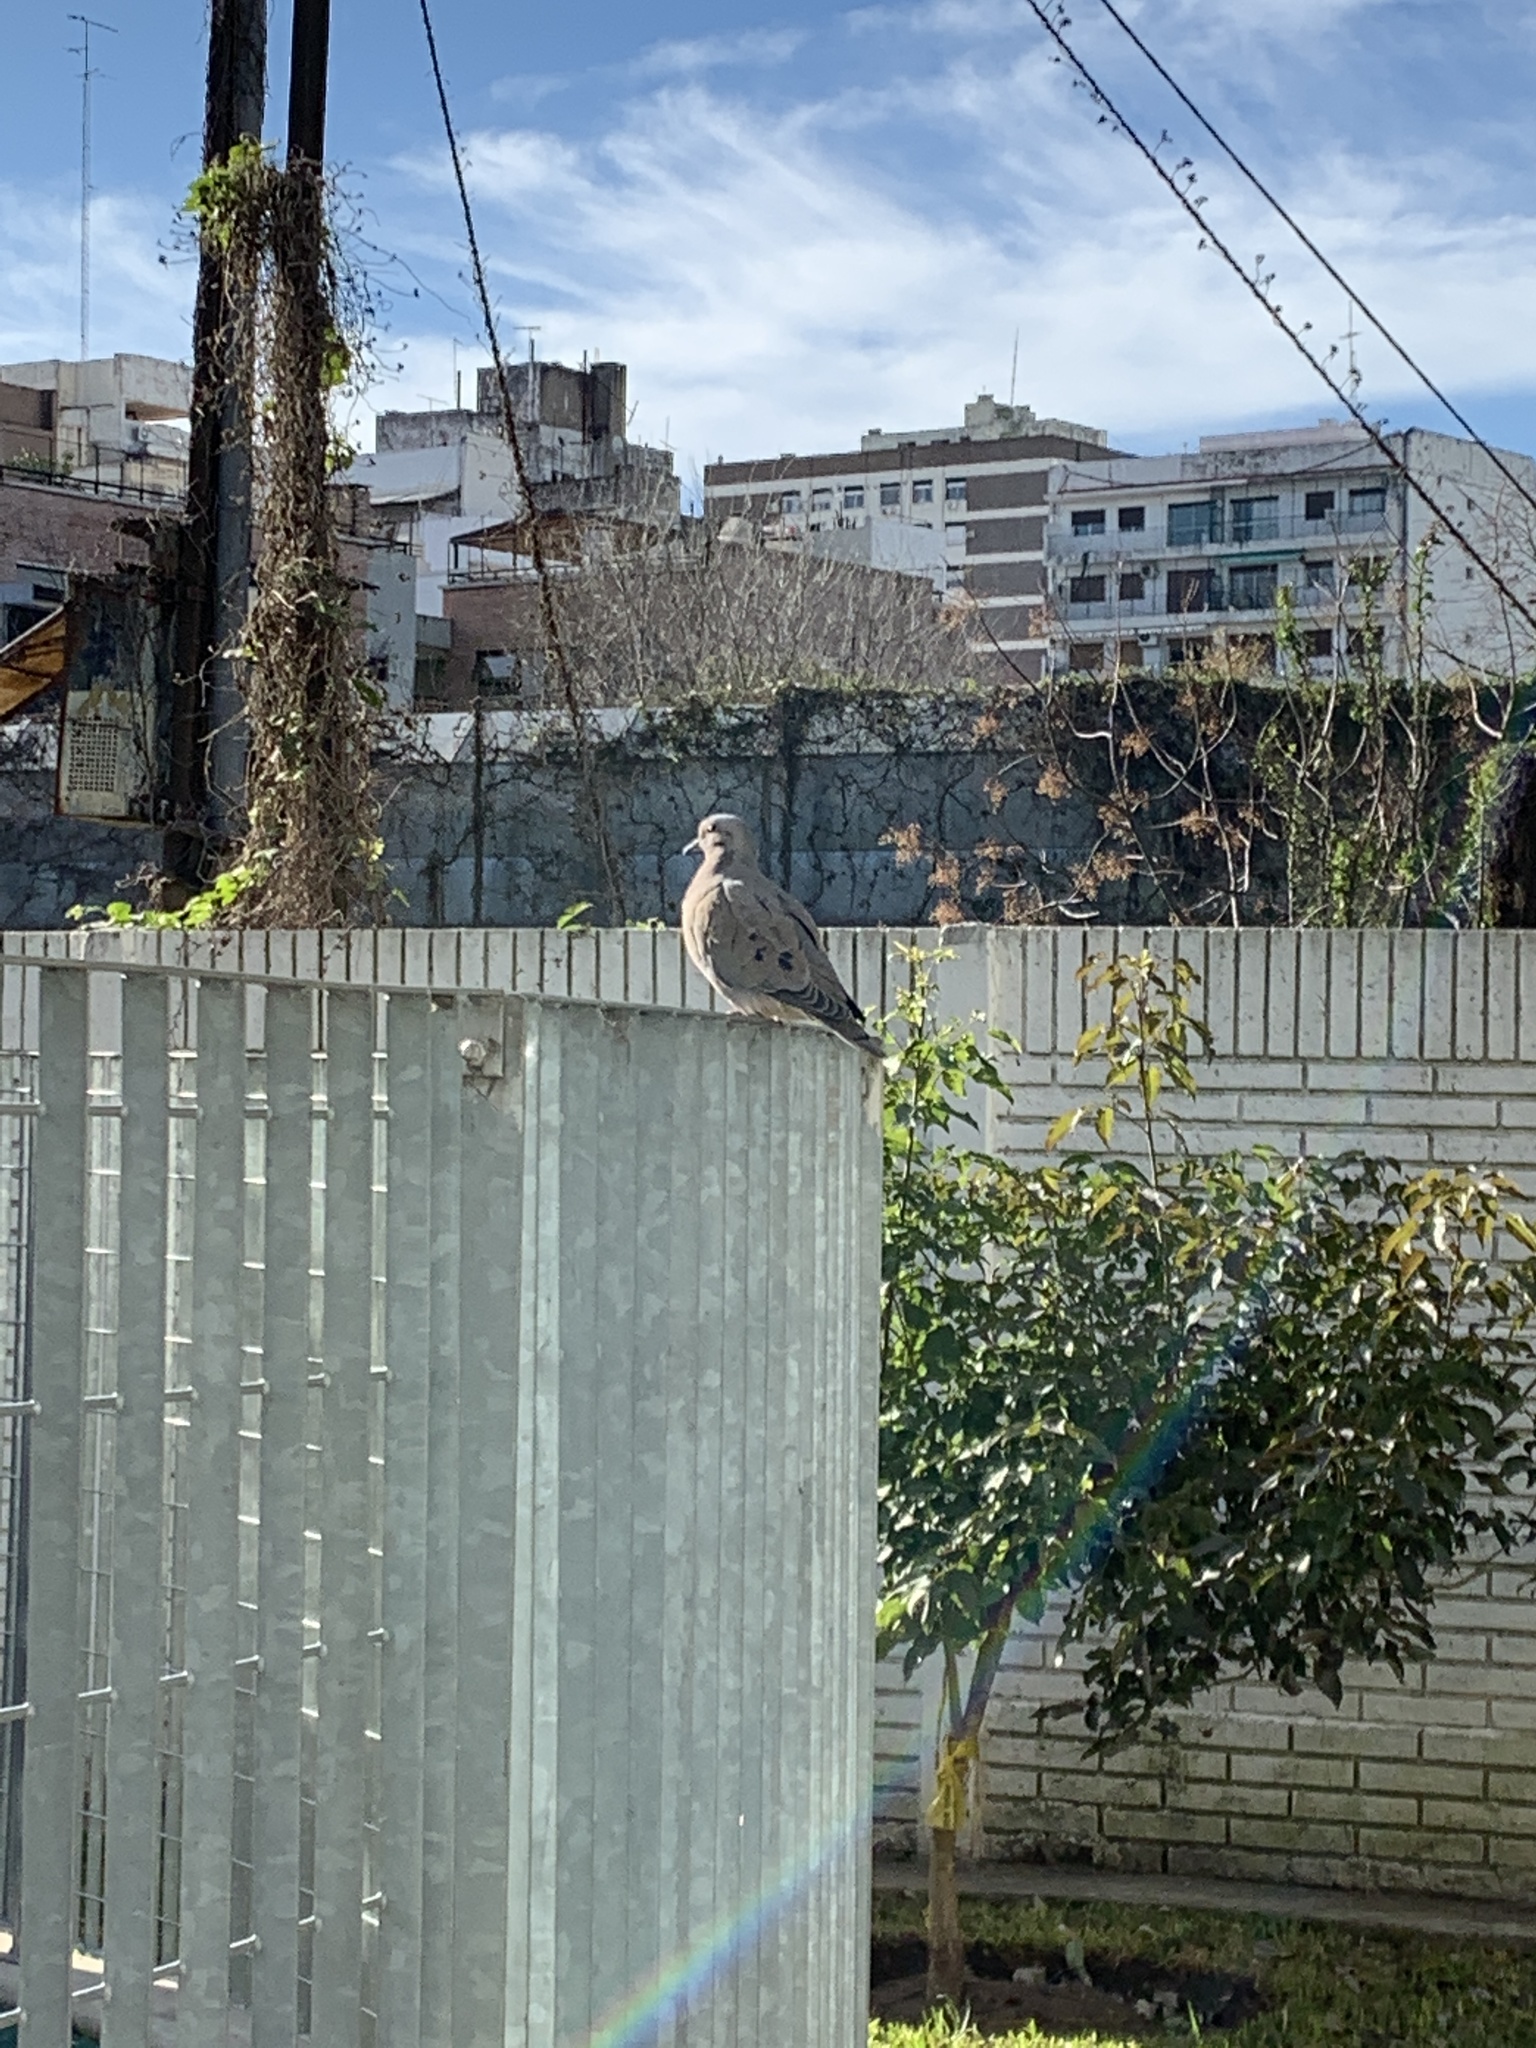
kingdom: Animalia
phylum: Chordata
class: Aves
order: Columbiformes
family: Columbidae
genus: Zenaida
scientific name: Zenaida auriculata
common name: Eared dove
